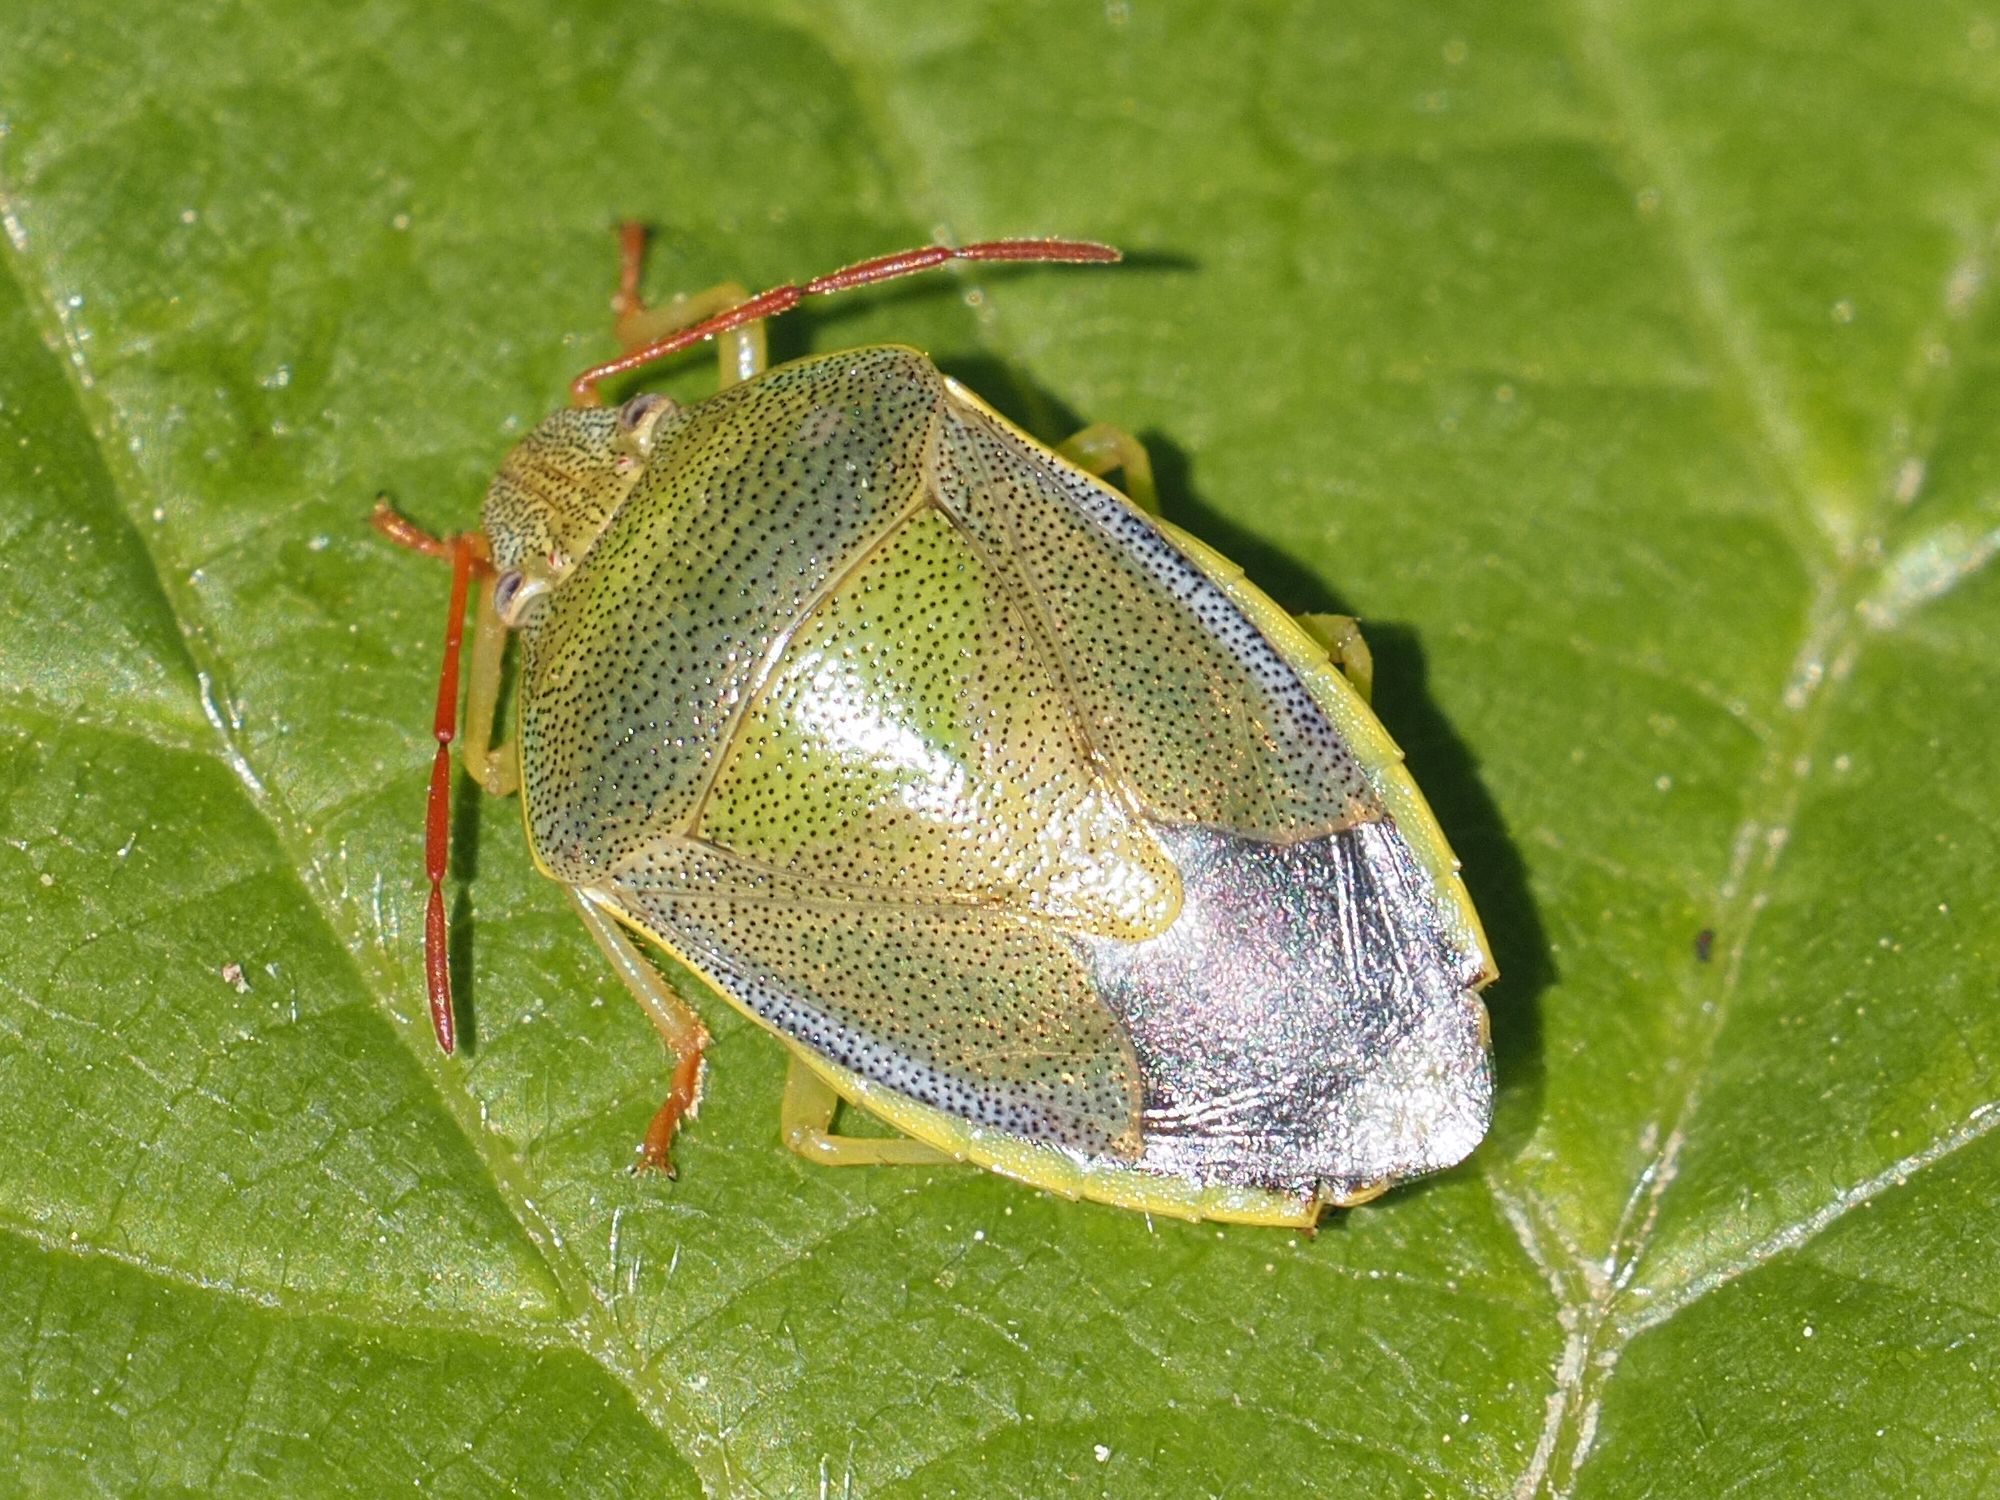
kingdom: Animalia
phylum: Arthropoda
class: Insecta
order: Hemiptera
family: Pentatomidae
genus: Piezodorus
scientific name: Piezodorus lituratus
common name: Stink bug
